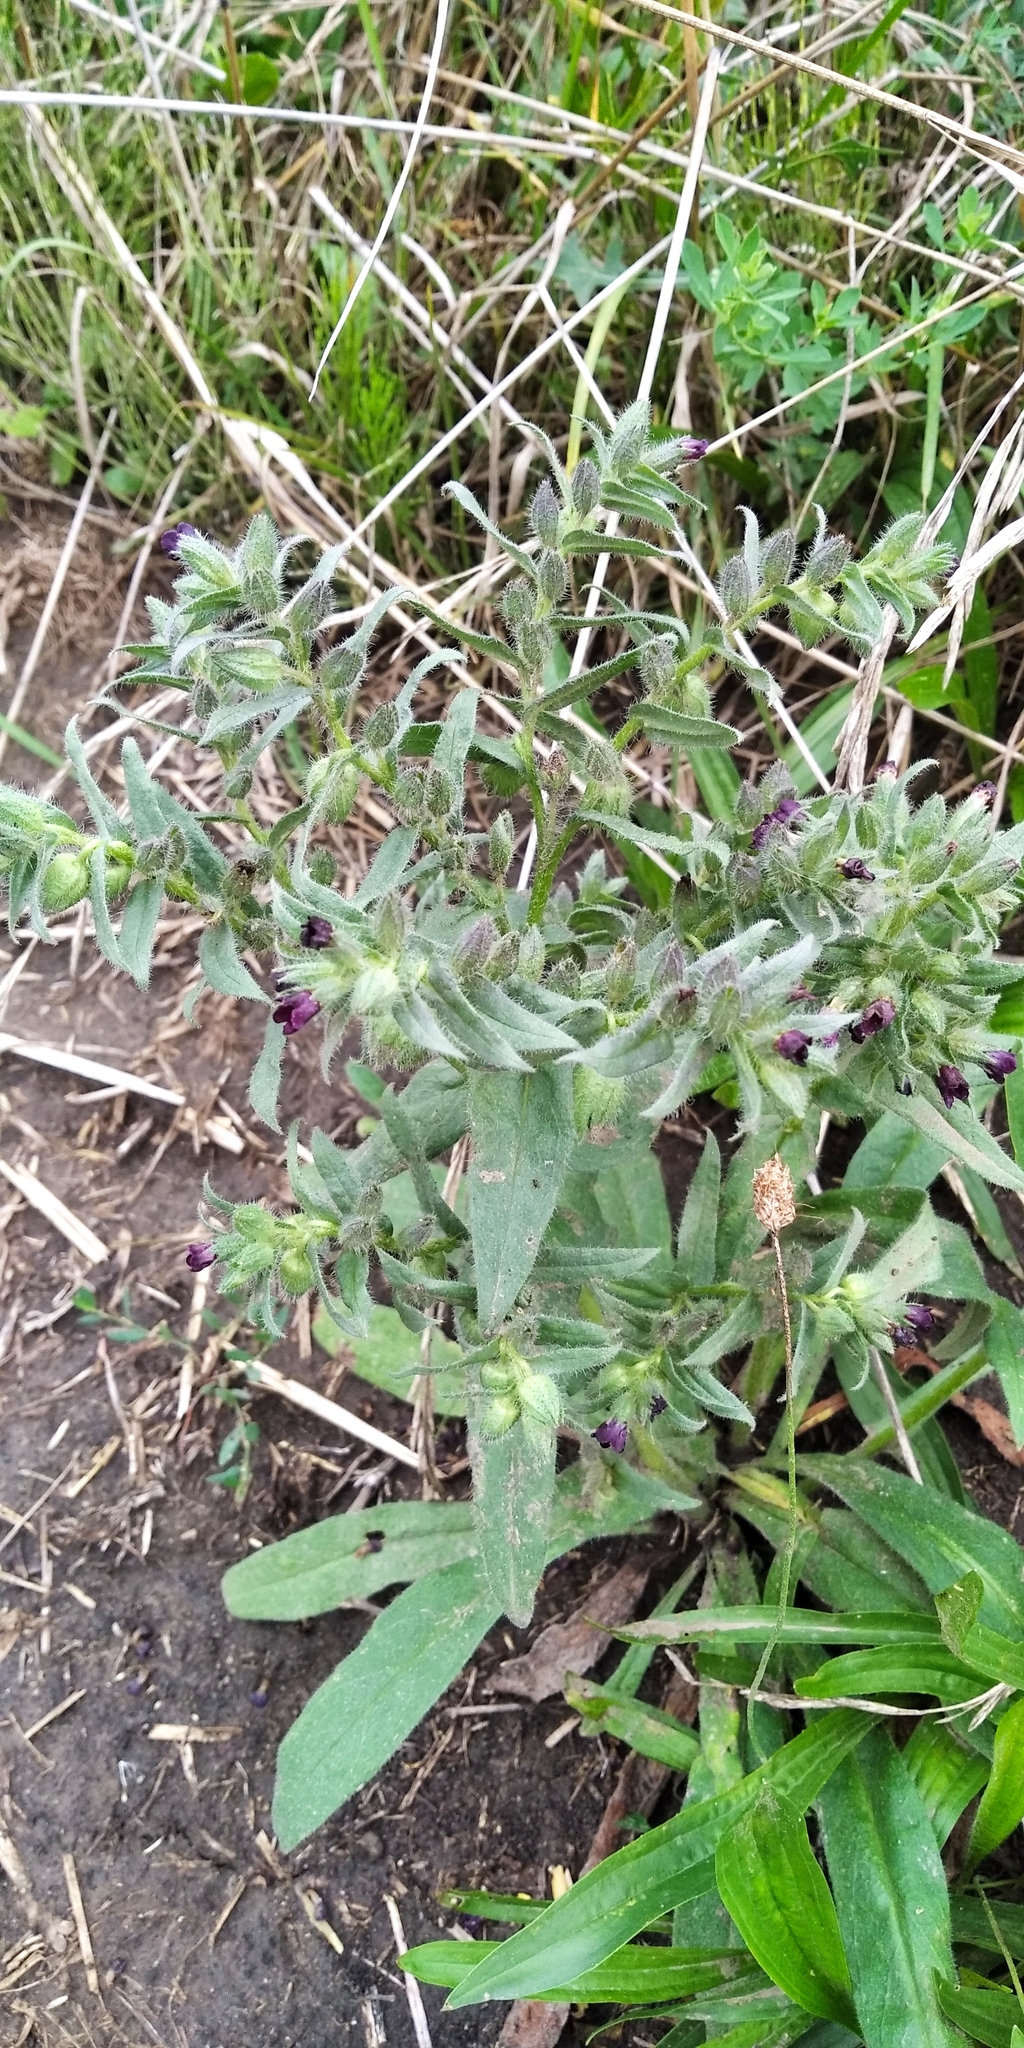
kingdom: Plantae
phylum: Tracheophyta
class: Magnoliopsida
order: Boraginales
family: Boraginaceae
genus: Nonea
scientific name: Nonea pulla
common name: Brown nonea
